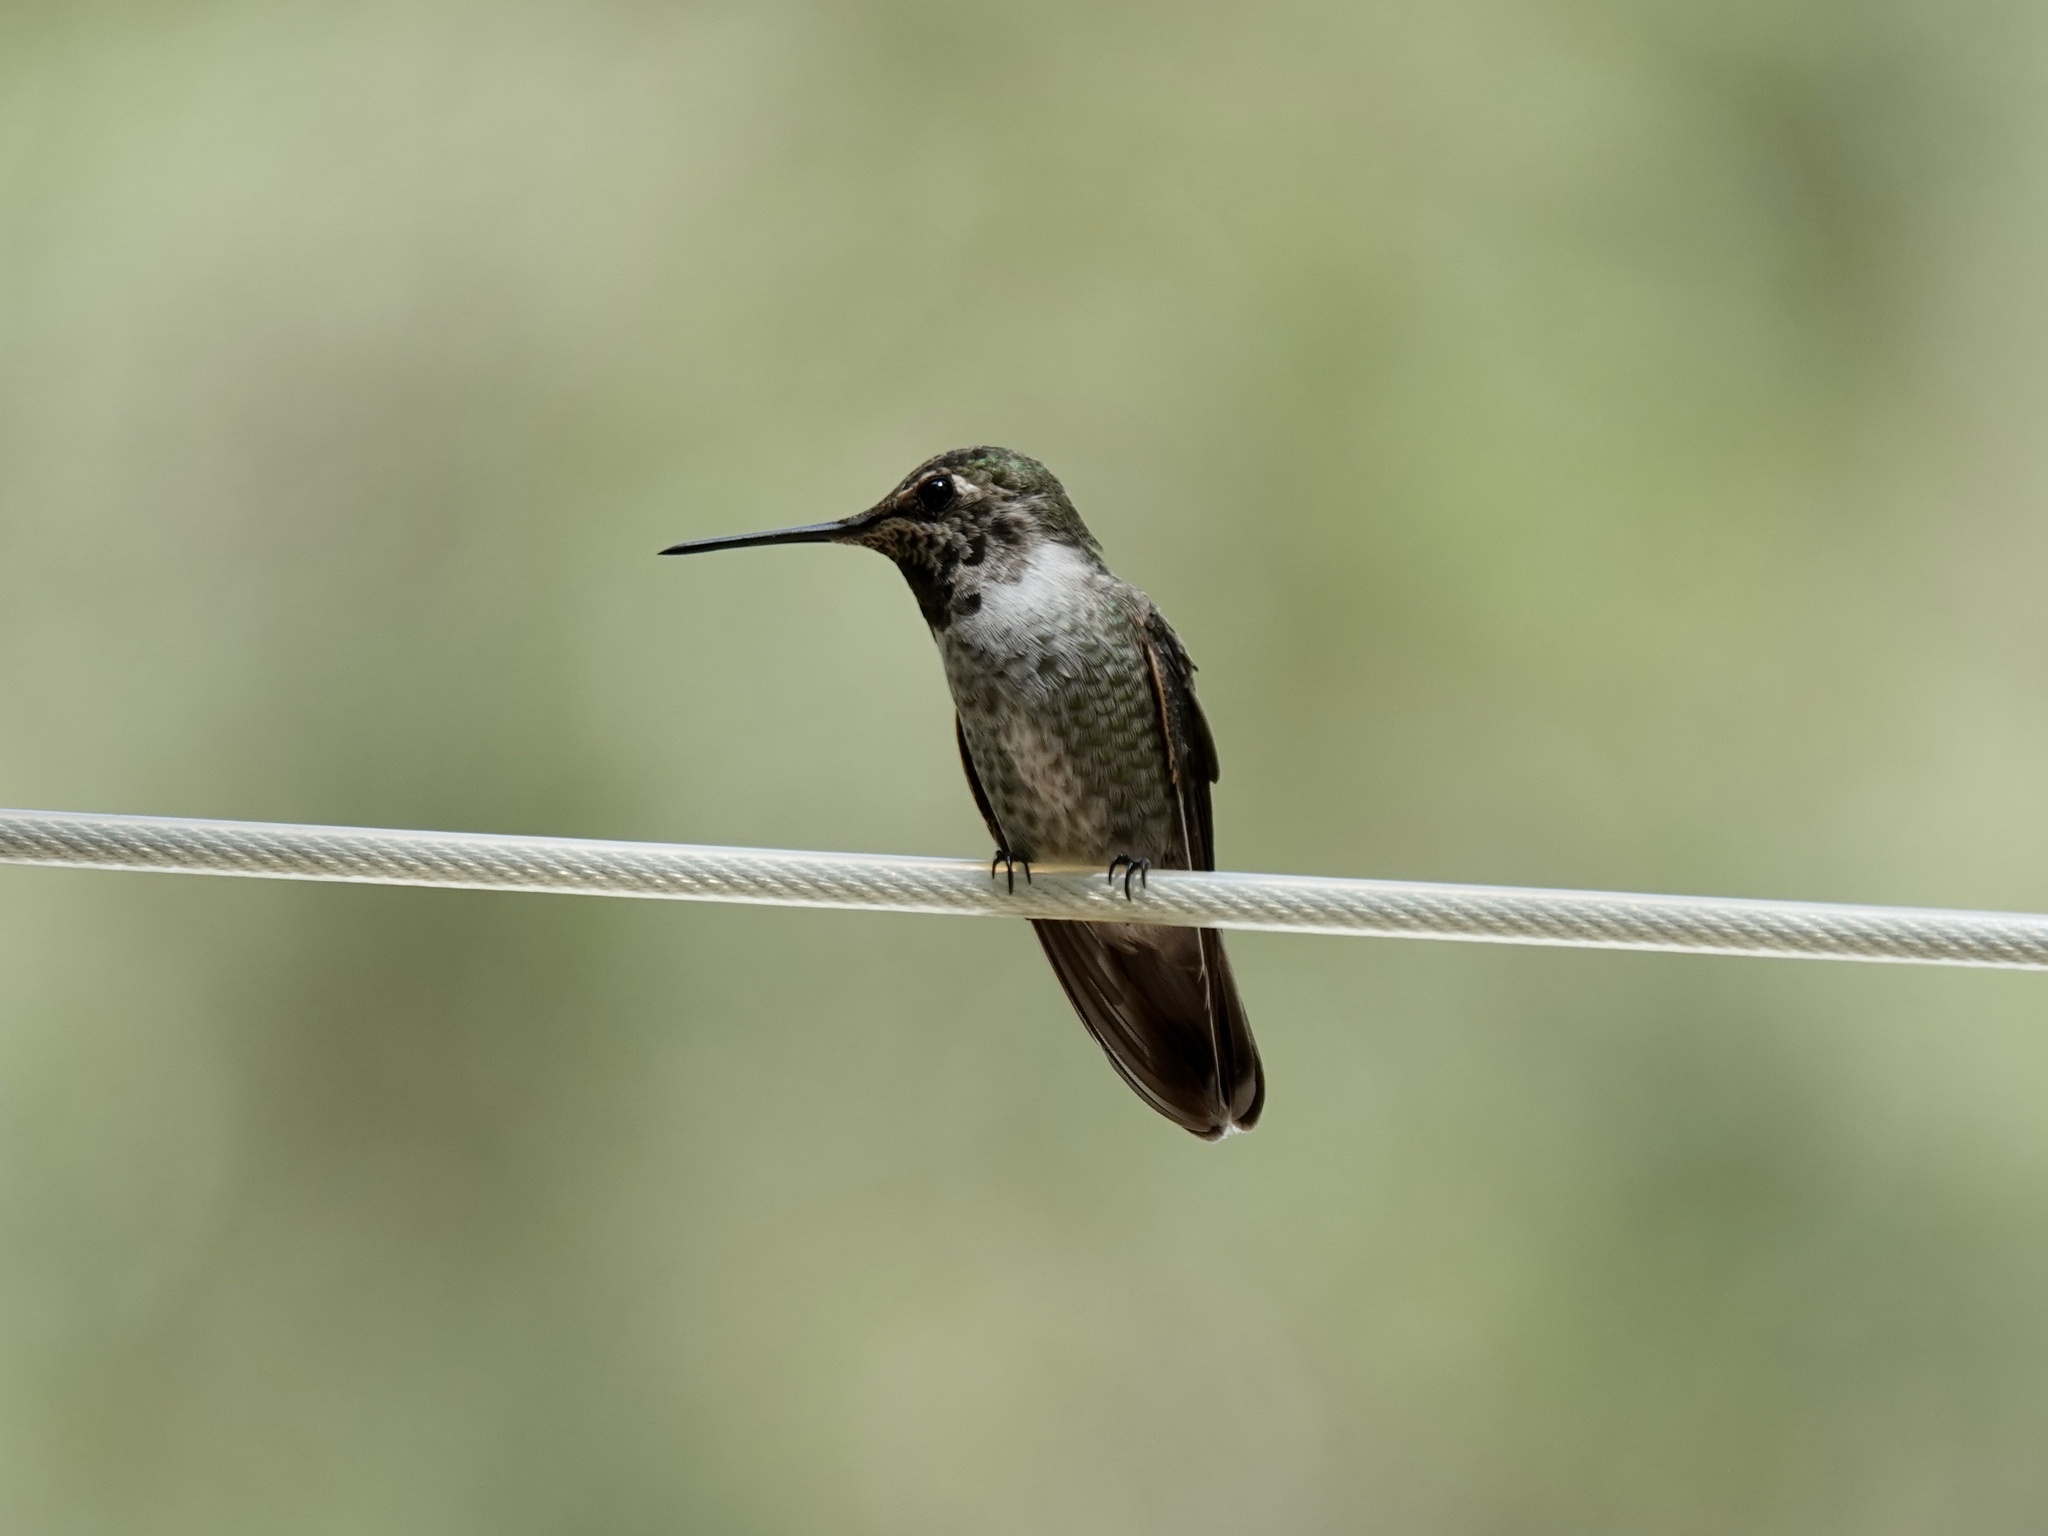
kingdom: Animalia
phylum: Chordata
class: Aves
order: Apodiformes
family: Trochilidae
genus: Calypte
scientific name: Calypte anna
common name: Anna's hummingbird
